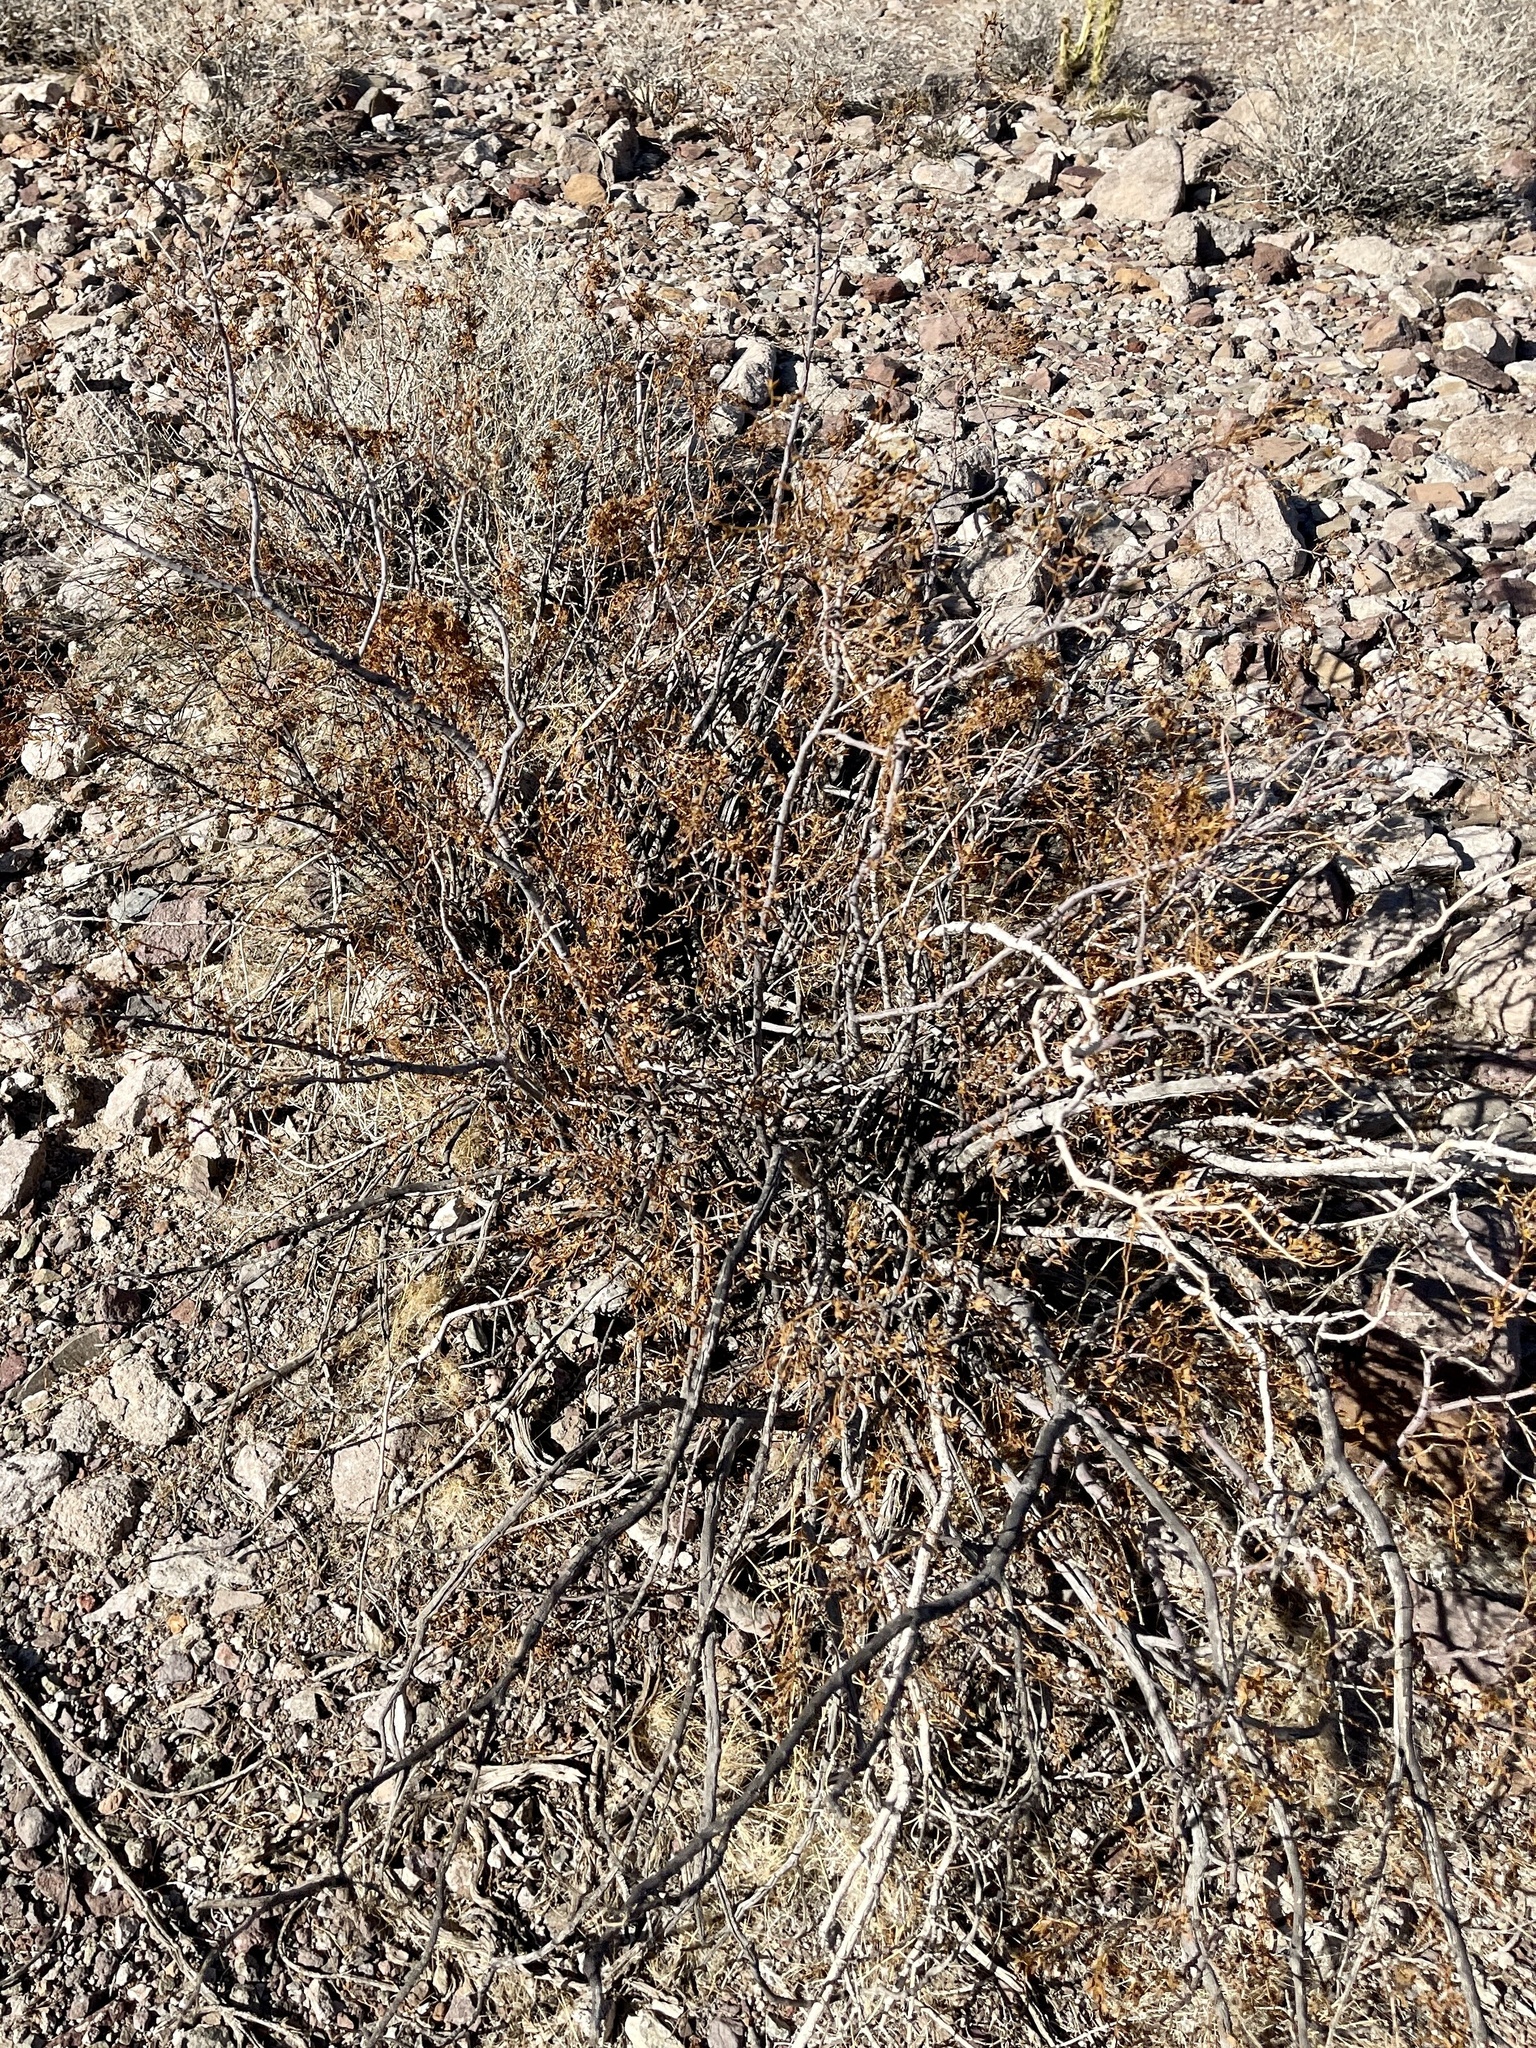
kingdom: Plantae
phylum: Tracheophyta
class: Magnoliopsida
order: Zygophyllales
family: Zygophyllaceae
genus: Larrea
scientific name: Larrea tridentata
